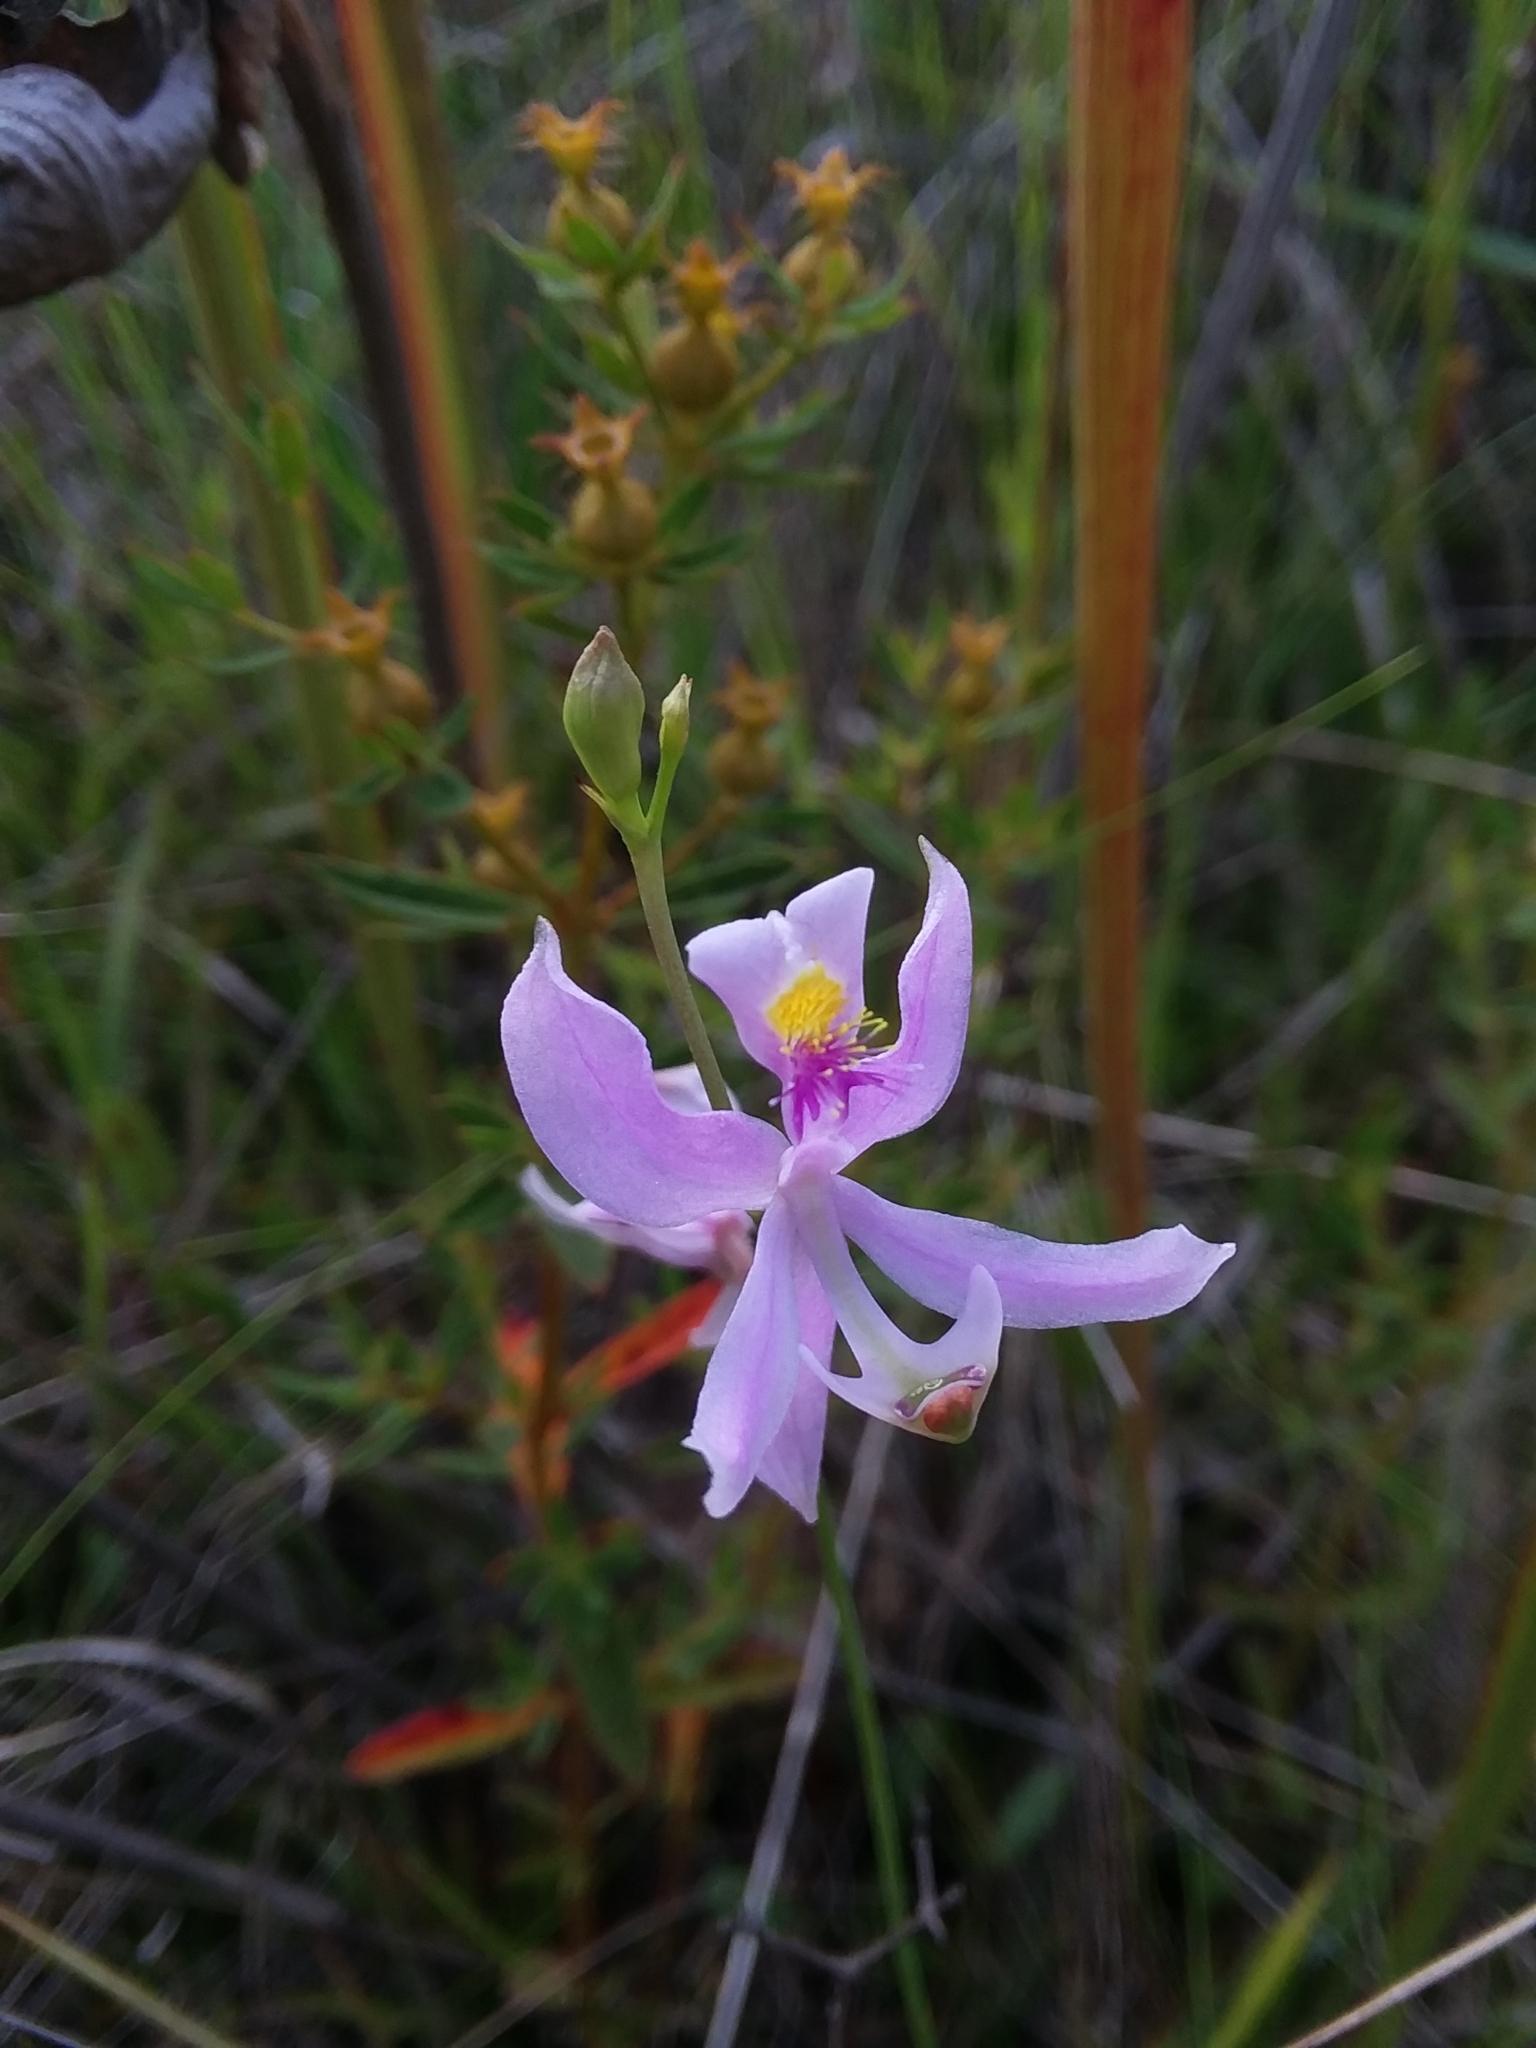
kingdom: Plantae
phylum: Tracheophyta
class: Liliopsida
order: Asparagales
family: Orchidaceae
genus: Calopogon
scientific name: Calopogon pallidus
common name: Pale grasspink
